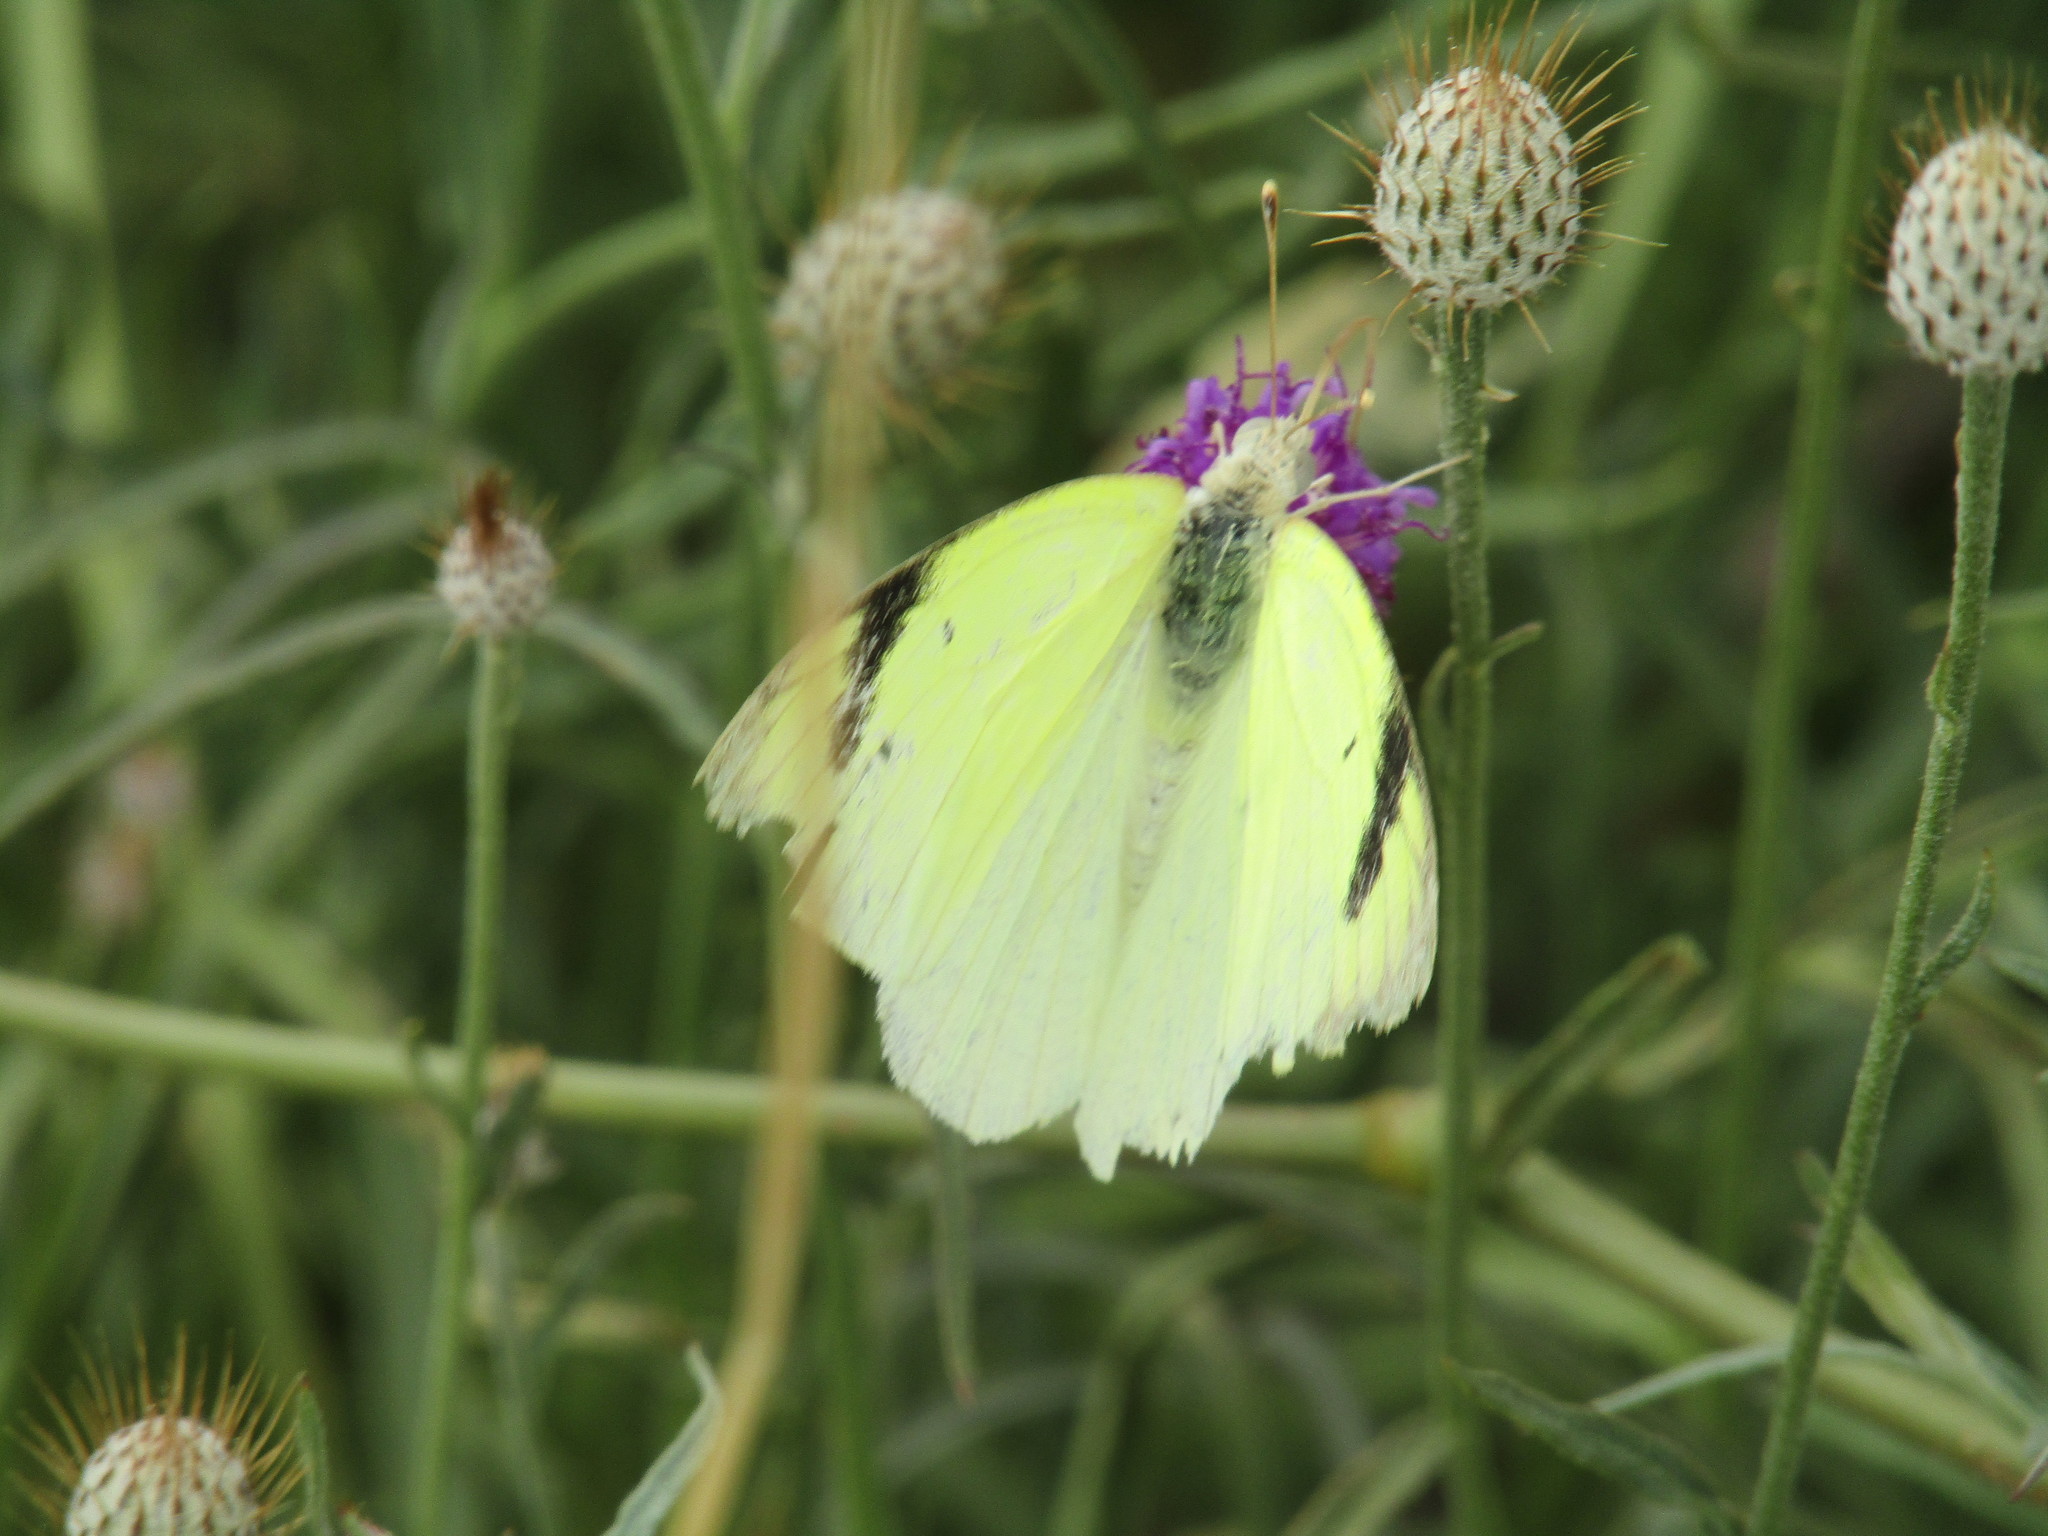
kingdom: Animalia
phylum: Arthropoda
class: Insecta
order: Lepidoptera
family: Pieridae
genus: Colotis
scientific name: Colotis subfasciatus
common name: Lemon traveller tip
